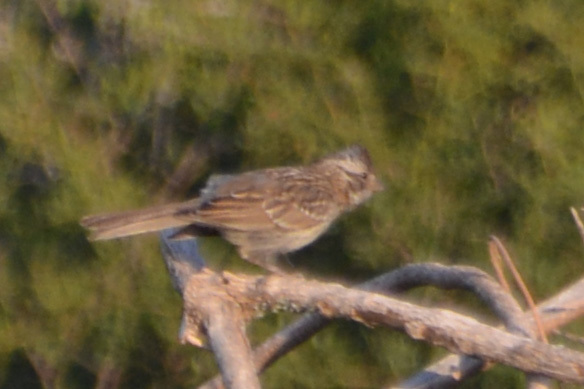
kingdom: Animalia
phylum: Chordata
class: Aves
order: Passeriformes
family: Passerellidae
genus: Zonotrichia
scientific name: Zonotrichia capensis
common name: Rufous-collared sparrow
